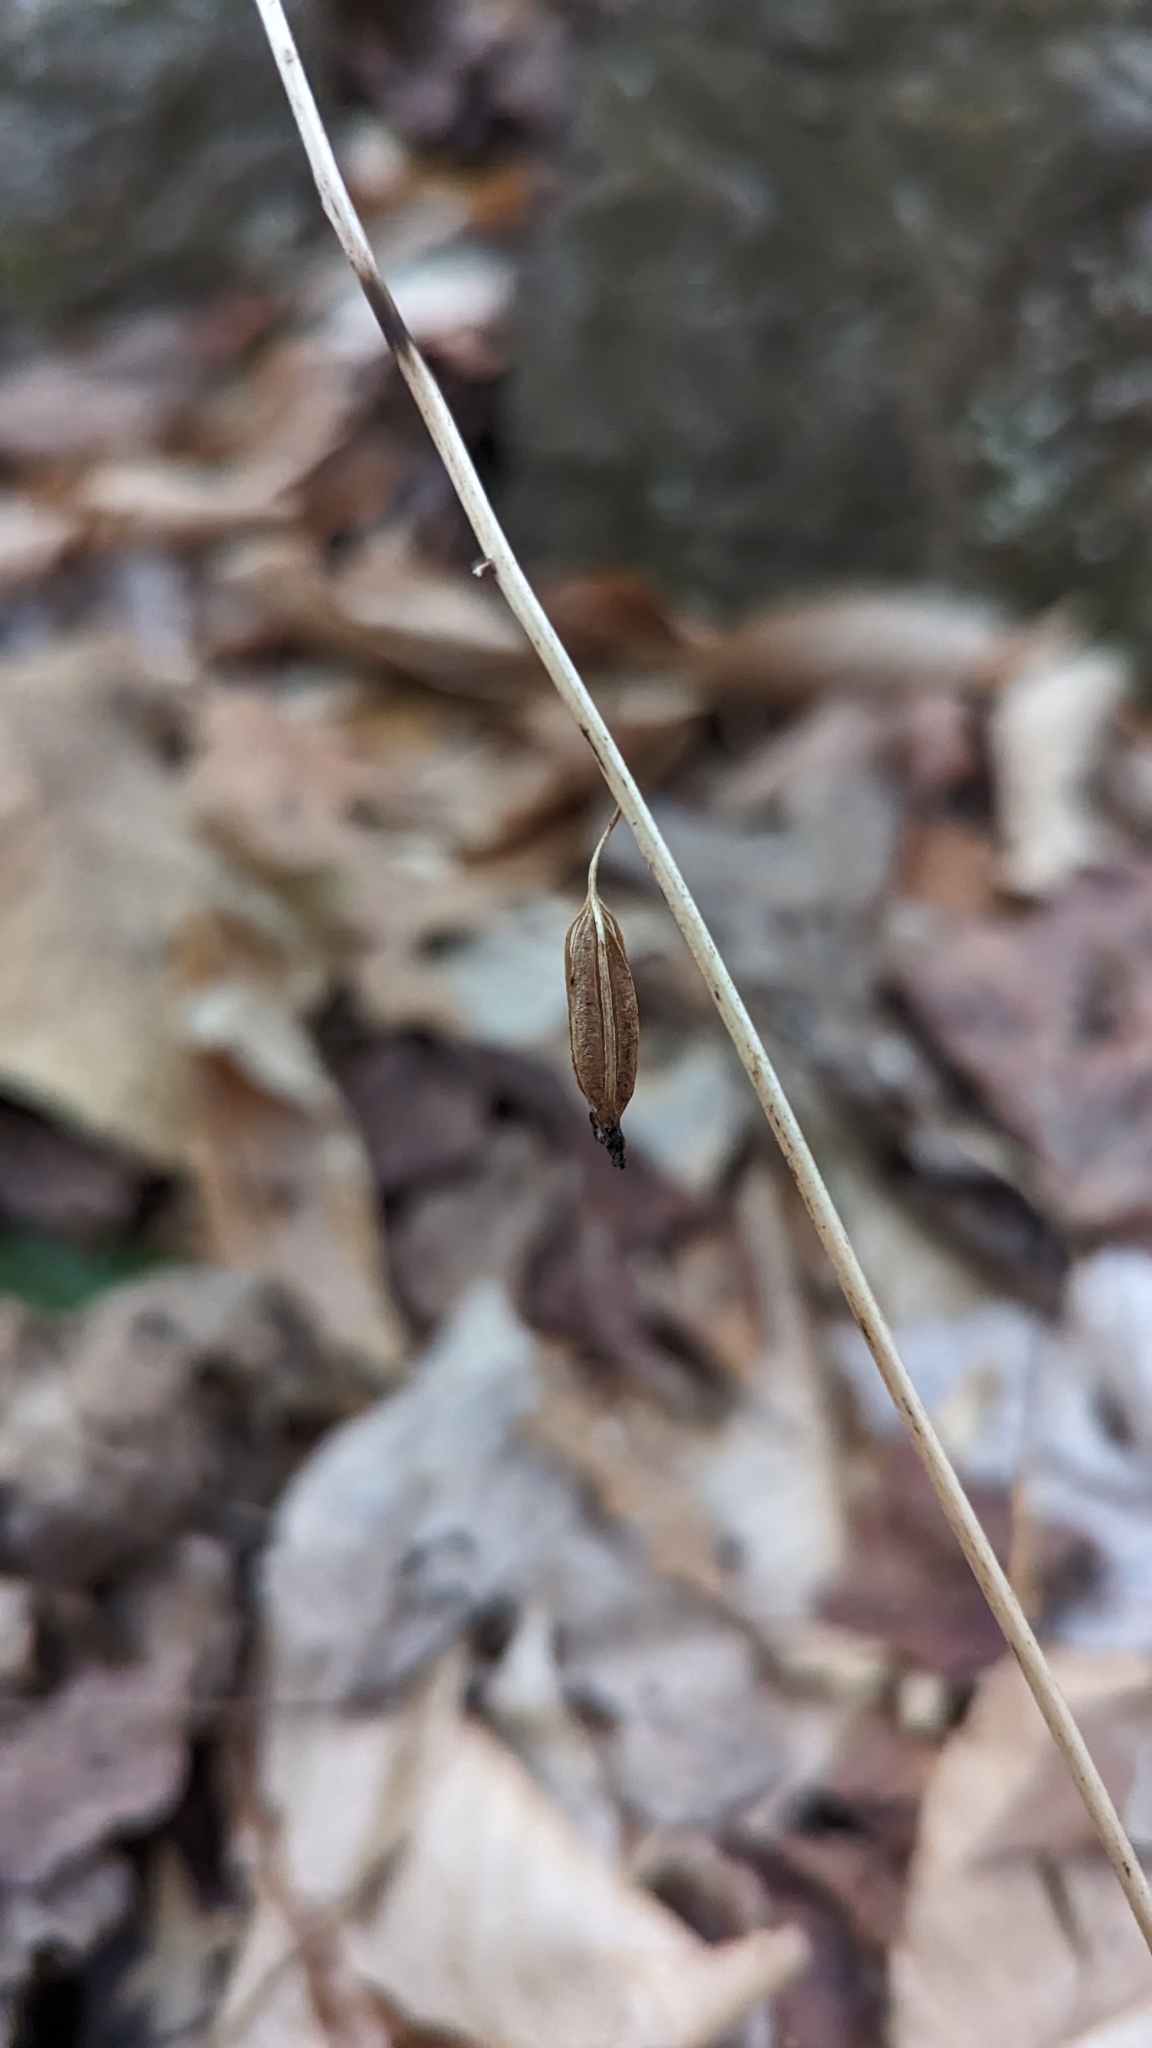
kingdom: Plantae
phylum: Tracheophyta
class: Liliopsida
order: Asparagales
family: Orchidaceae
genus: Tipularia
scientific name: Tipularia discolor
